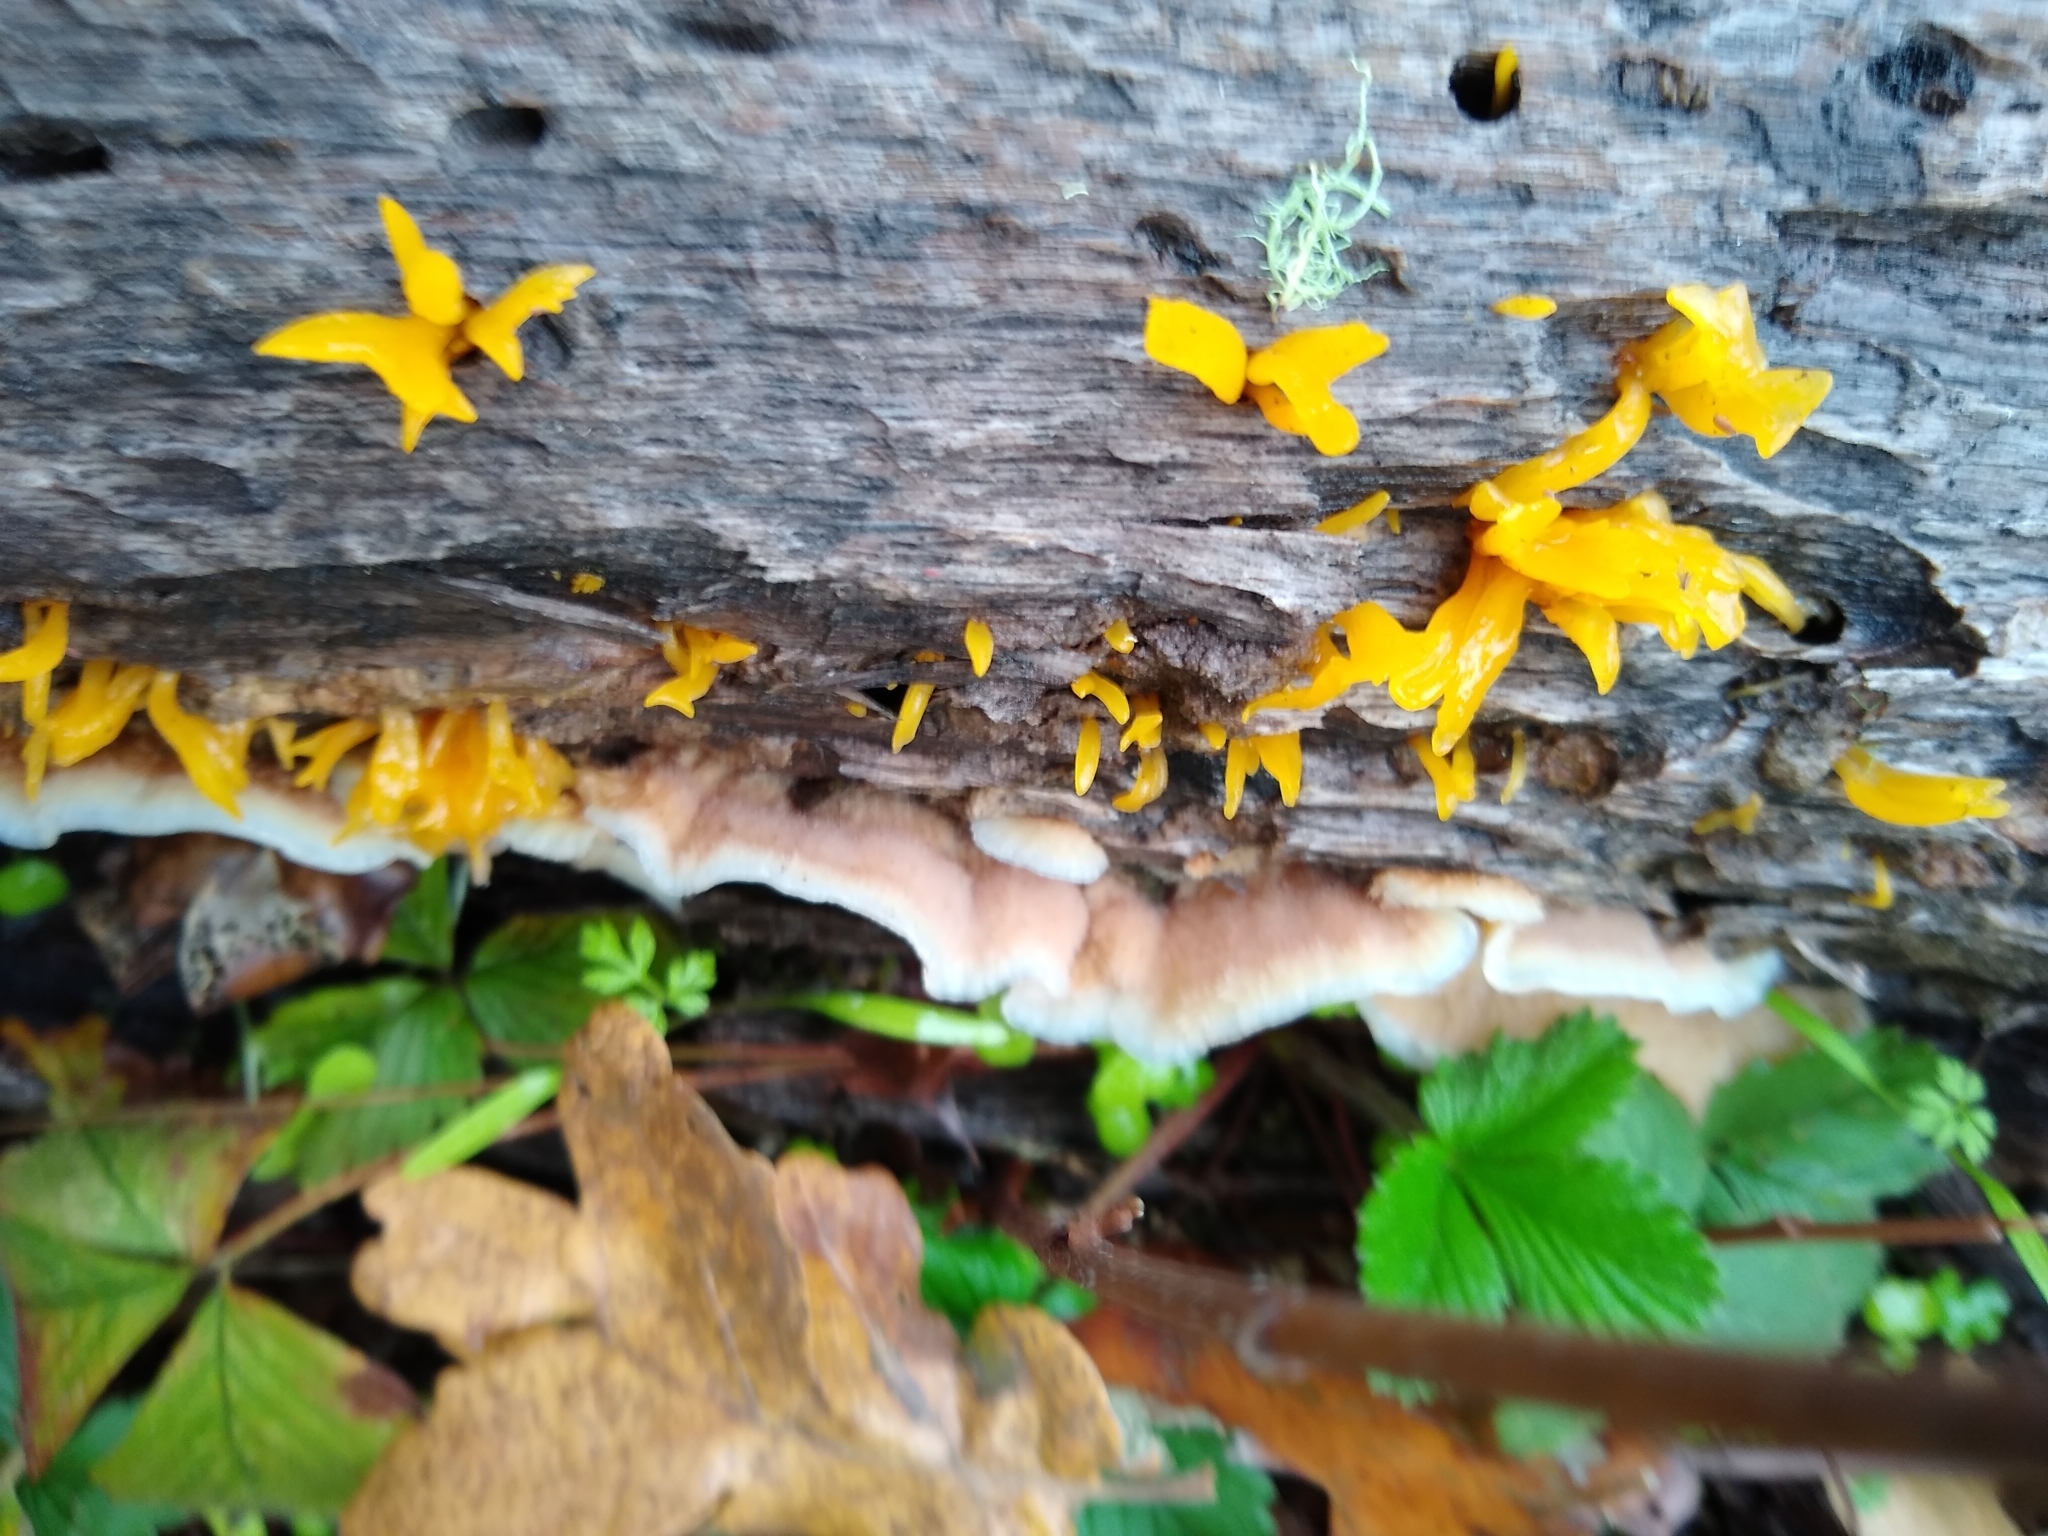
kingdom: Fungi
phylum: Basidiomycota
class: Agaricomycetes
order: Polyporales
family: Meruliaceae
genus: Phlebia
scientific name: Phlebia tremellosa
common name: Jelly rot
